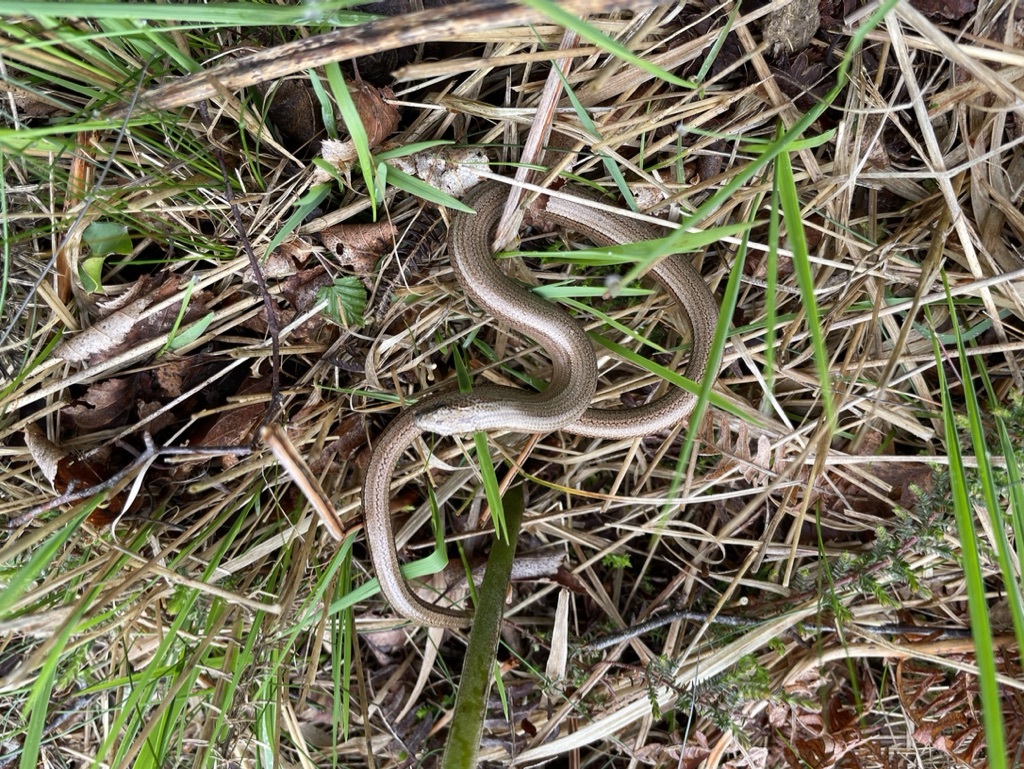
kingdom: Animalia
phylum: Chordata
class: Squamata
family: Anguidae
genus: Anguis
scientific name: Anguis fragilis
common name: Slow worm
